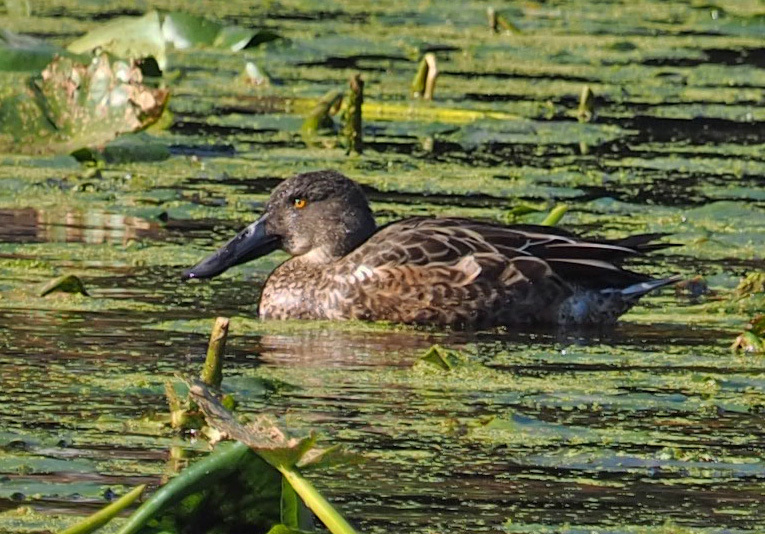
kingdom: Animalia
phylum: Chordata
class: Aves
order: Anseriformes
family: Anatidae
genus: Spatula
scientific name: Spatula clypeata
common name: Northern shoveler
